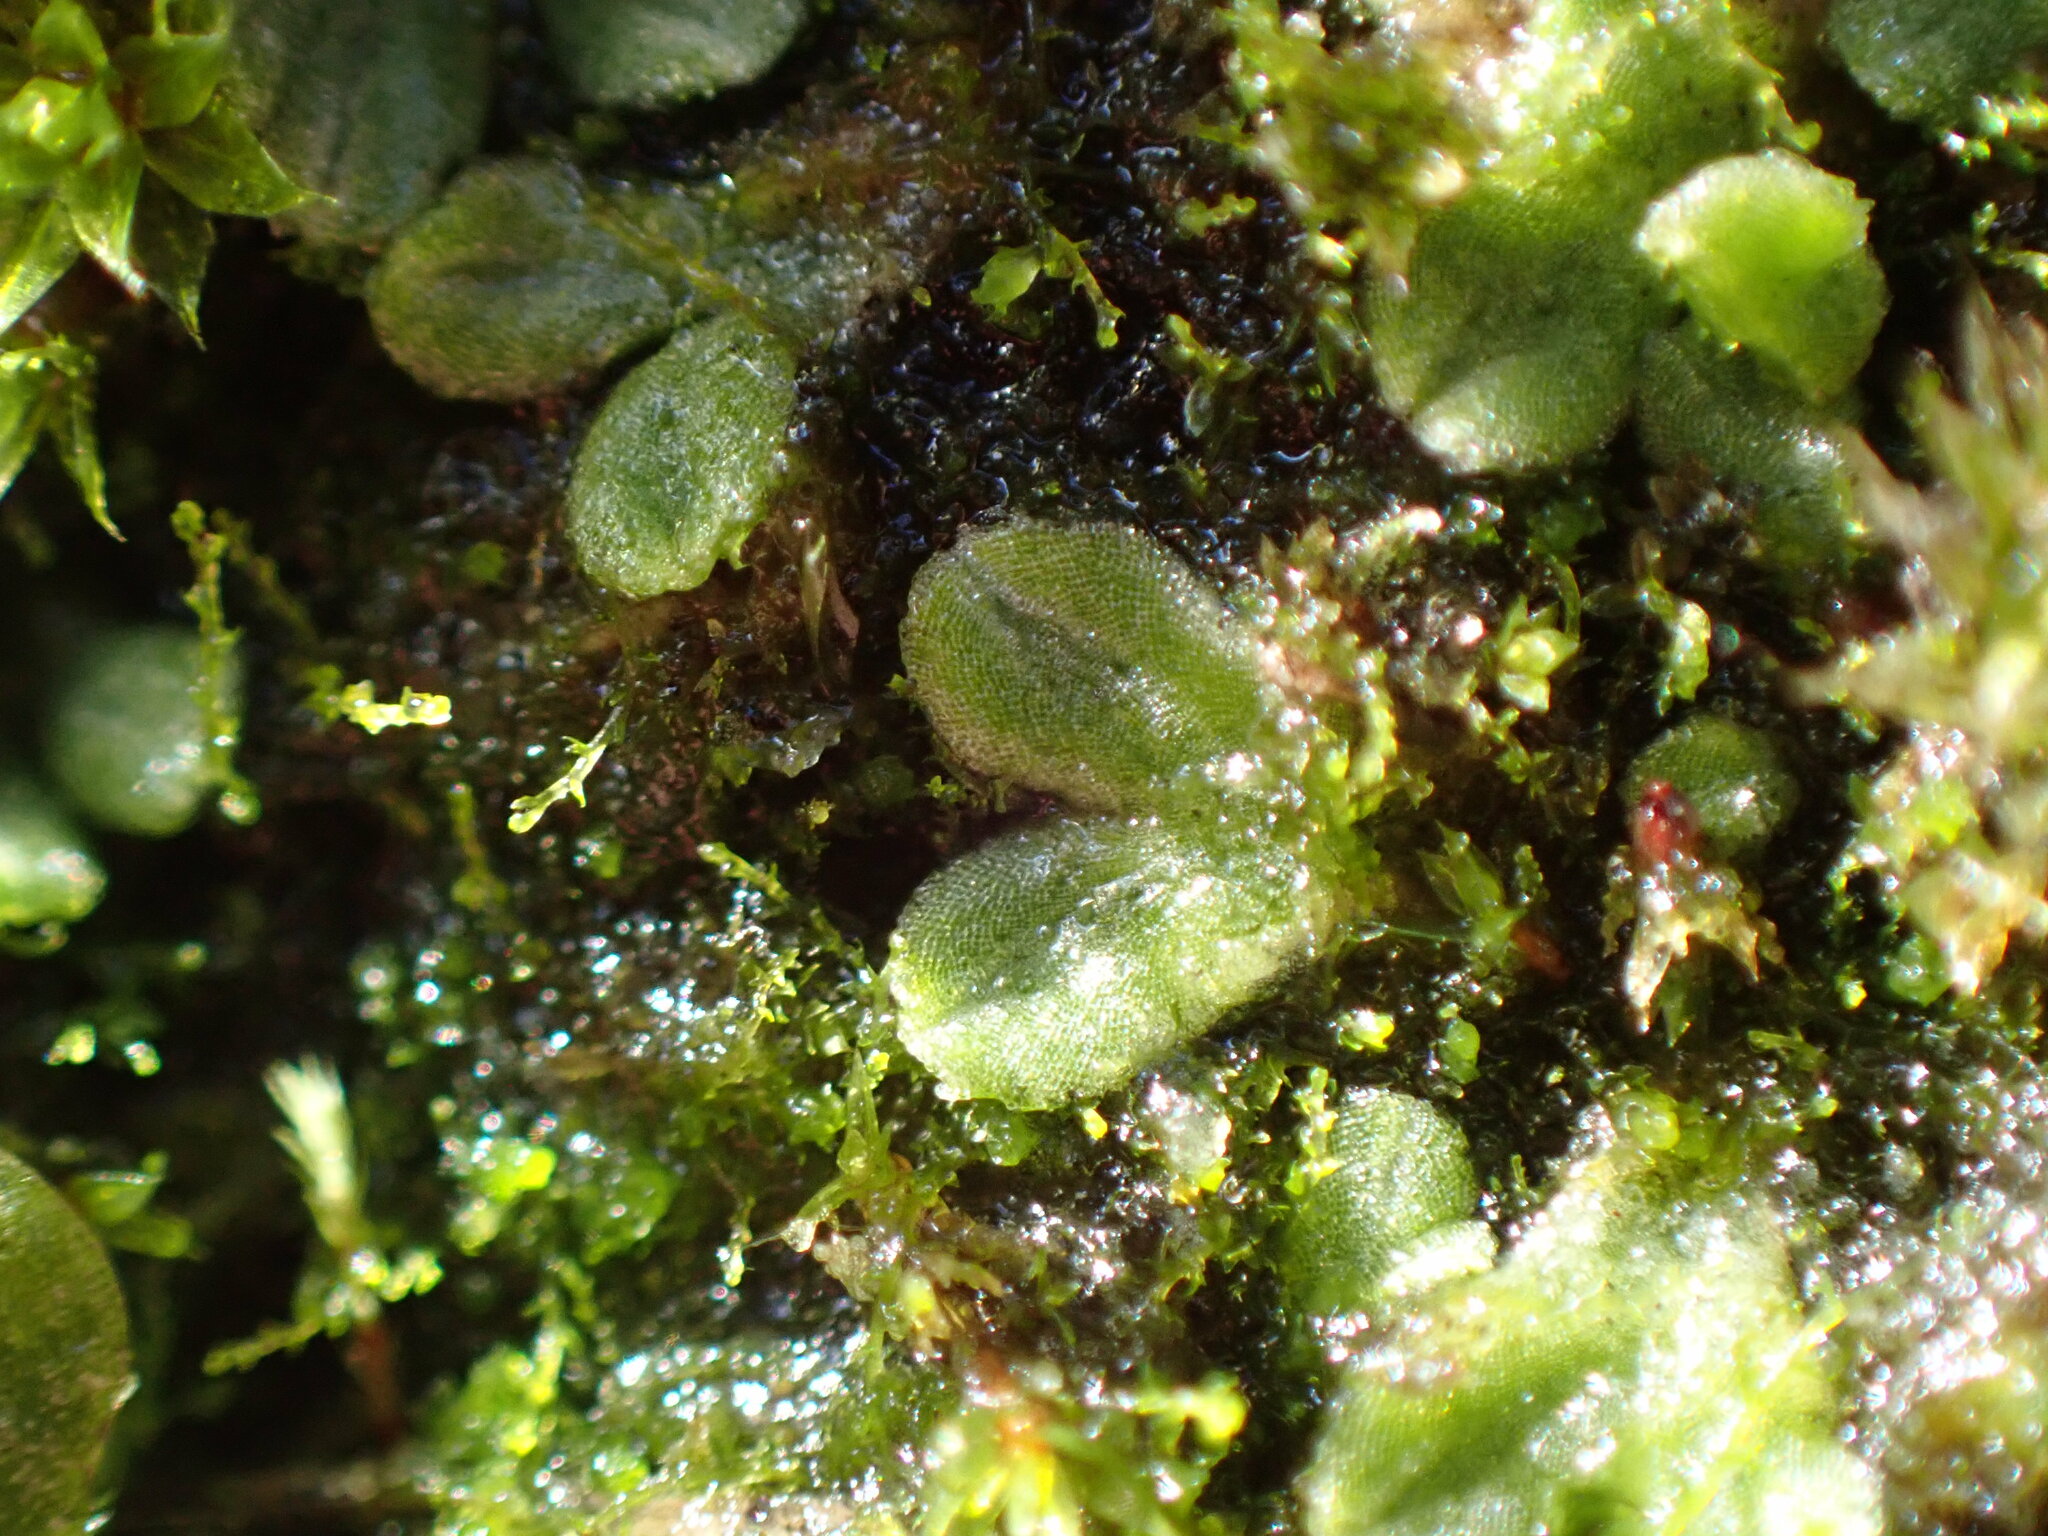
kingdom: Plantae
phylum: Marchantiophyta
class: Marchantiopsida
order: Marchantiales
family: Ricciaceae
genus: Riccia
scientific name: Riccia sorocarpa
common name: Common crystalwort
